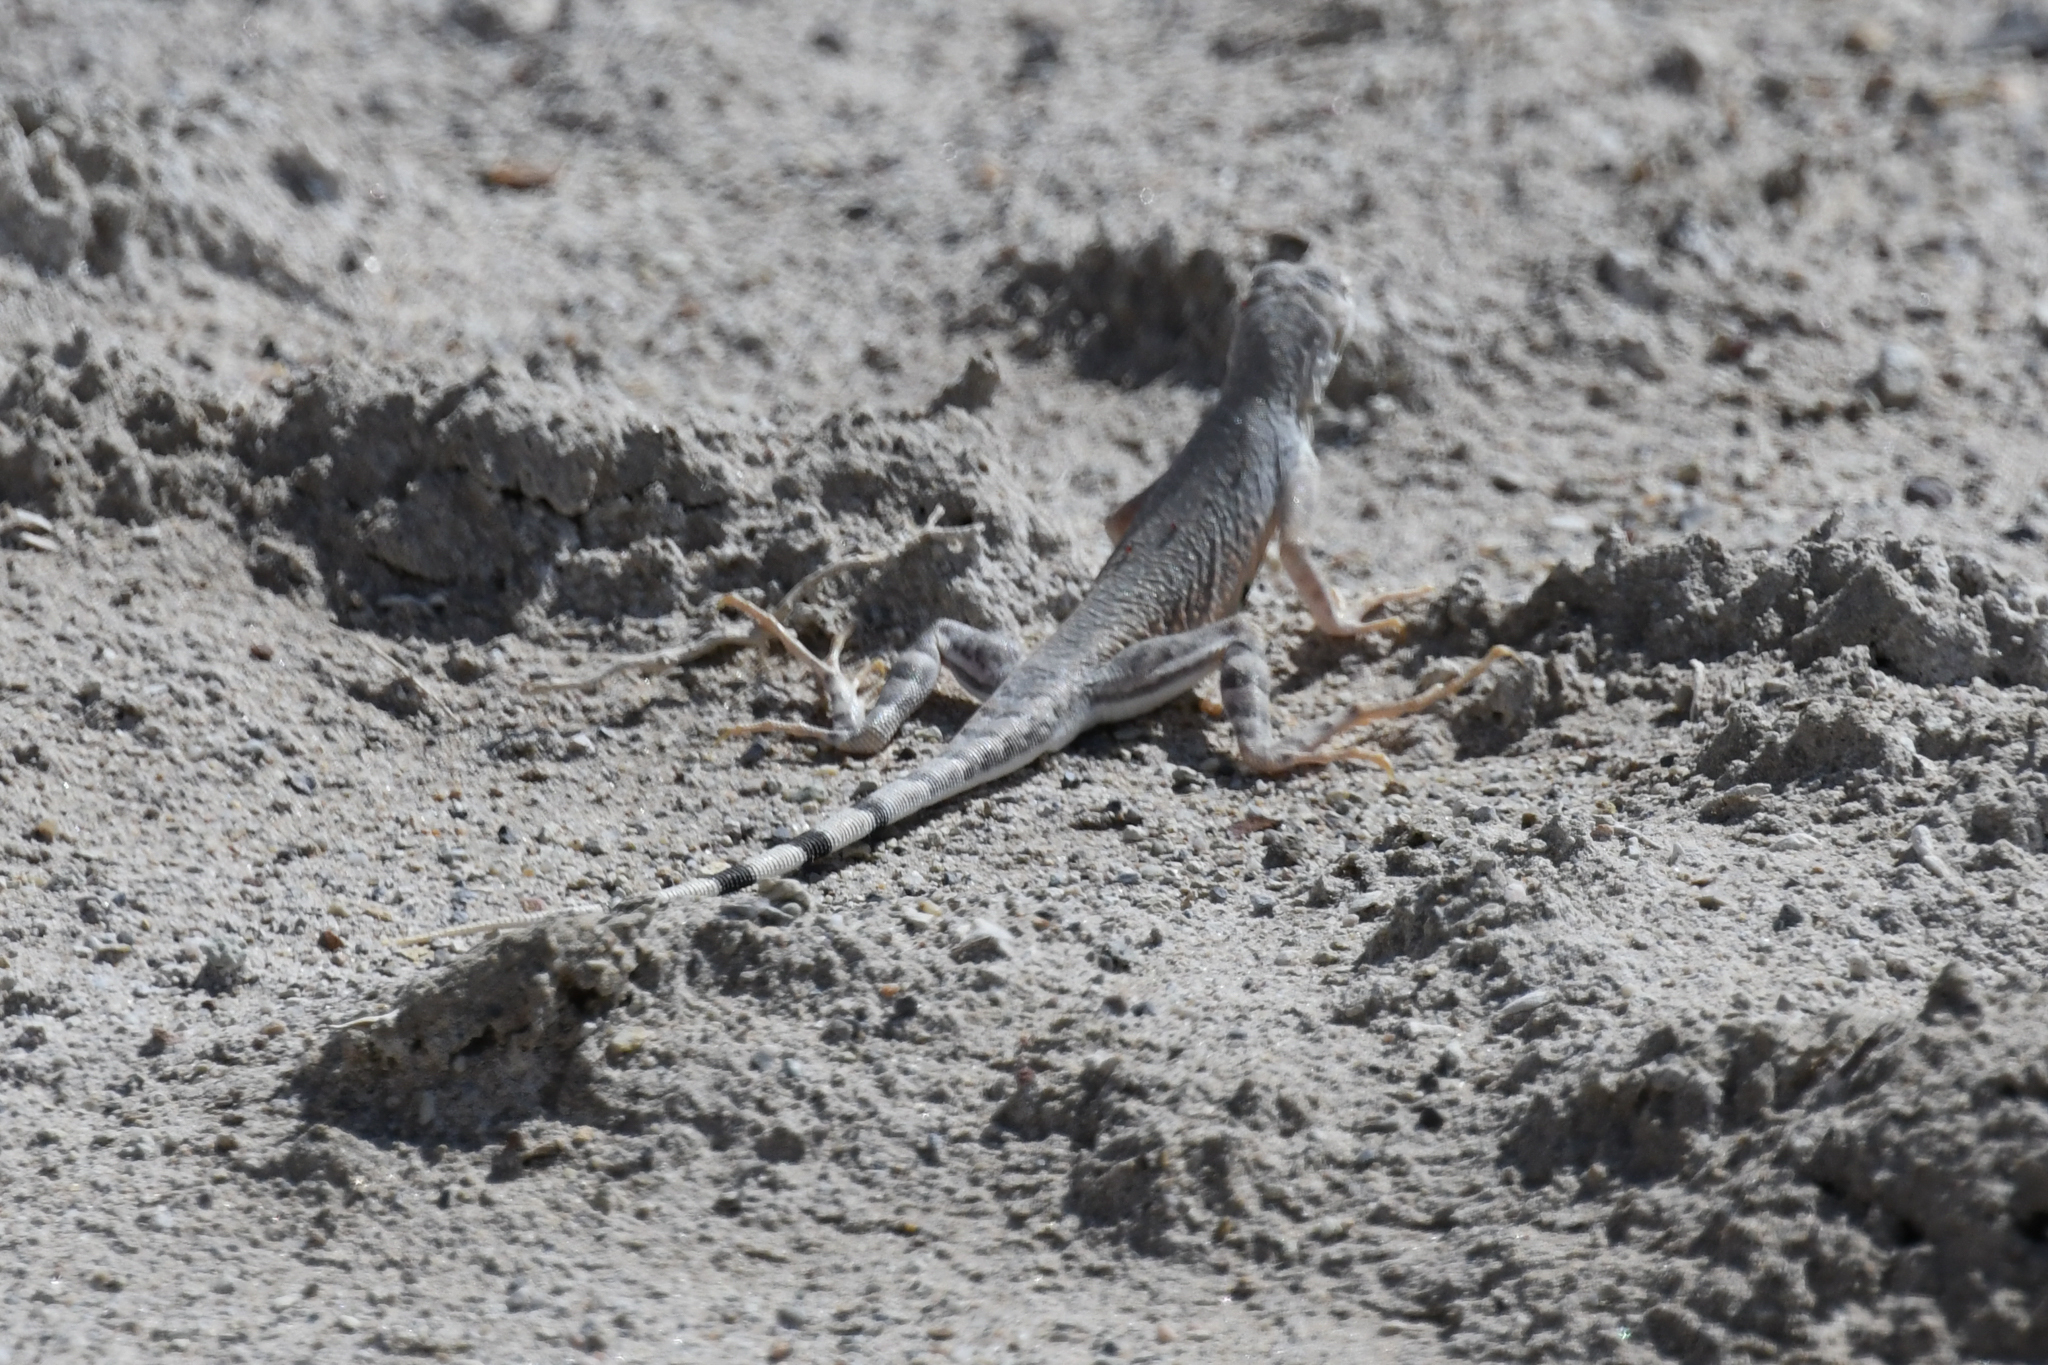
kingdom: Animalia
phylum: Chordata
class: Squamata
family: Phrynosomatidae
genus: Callisaurus
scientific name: Callisaurus draconoides
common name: Zebra-tailed lizard
